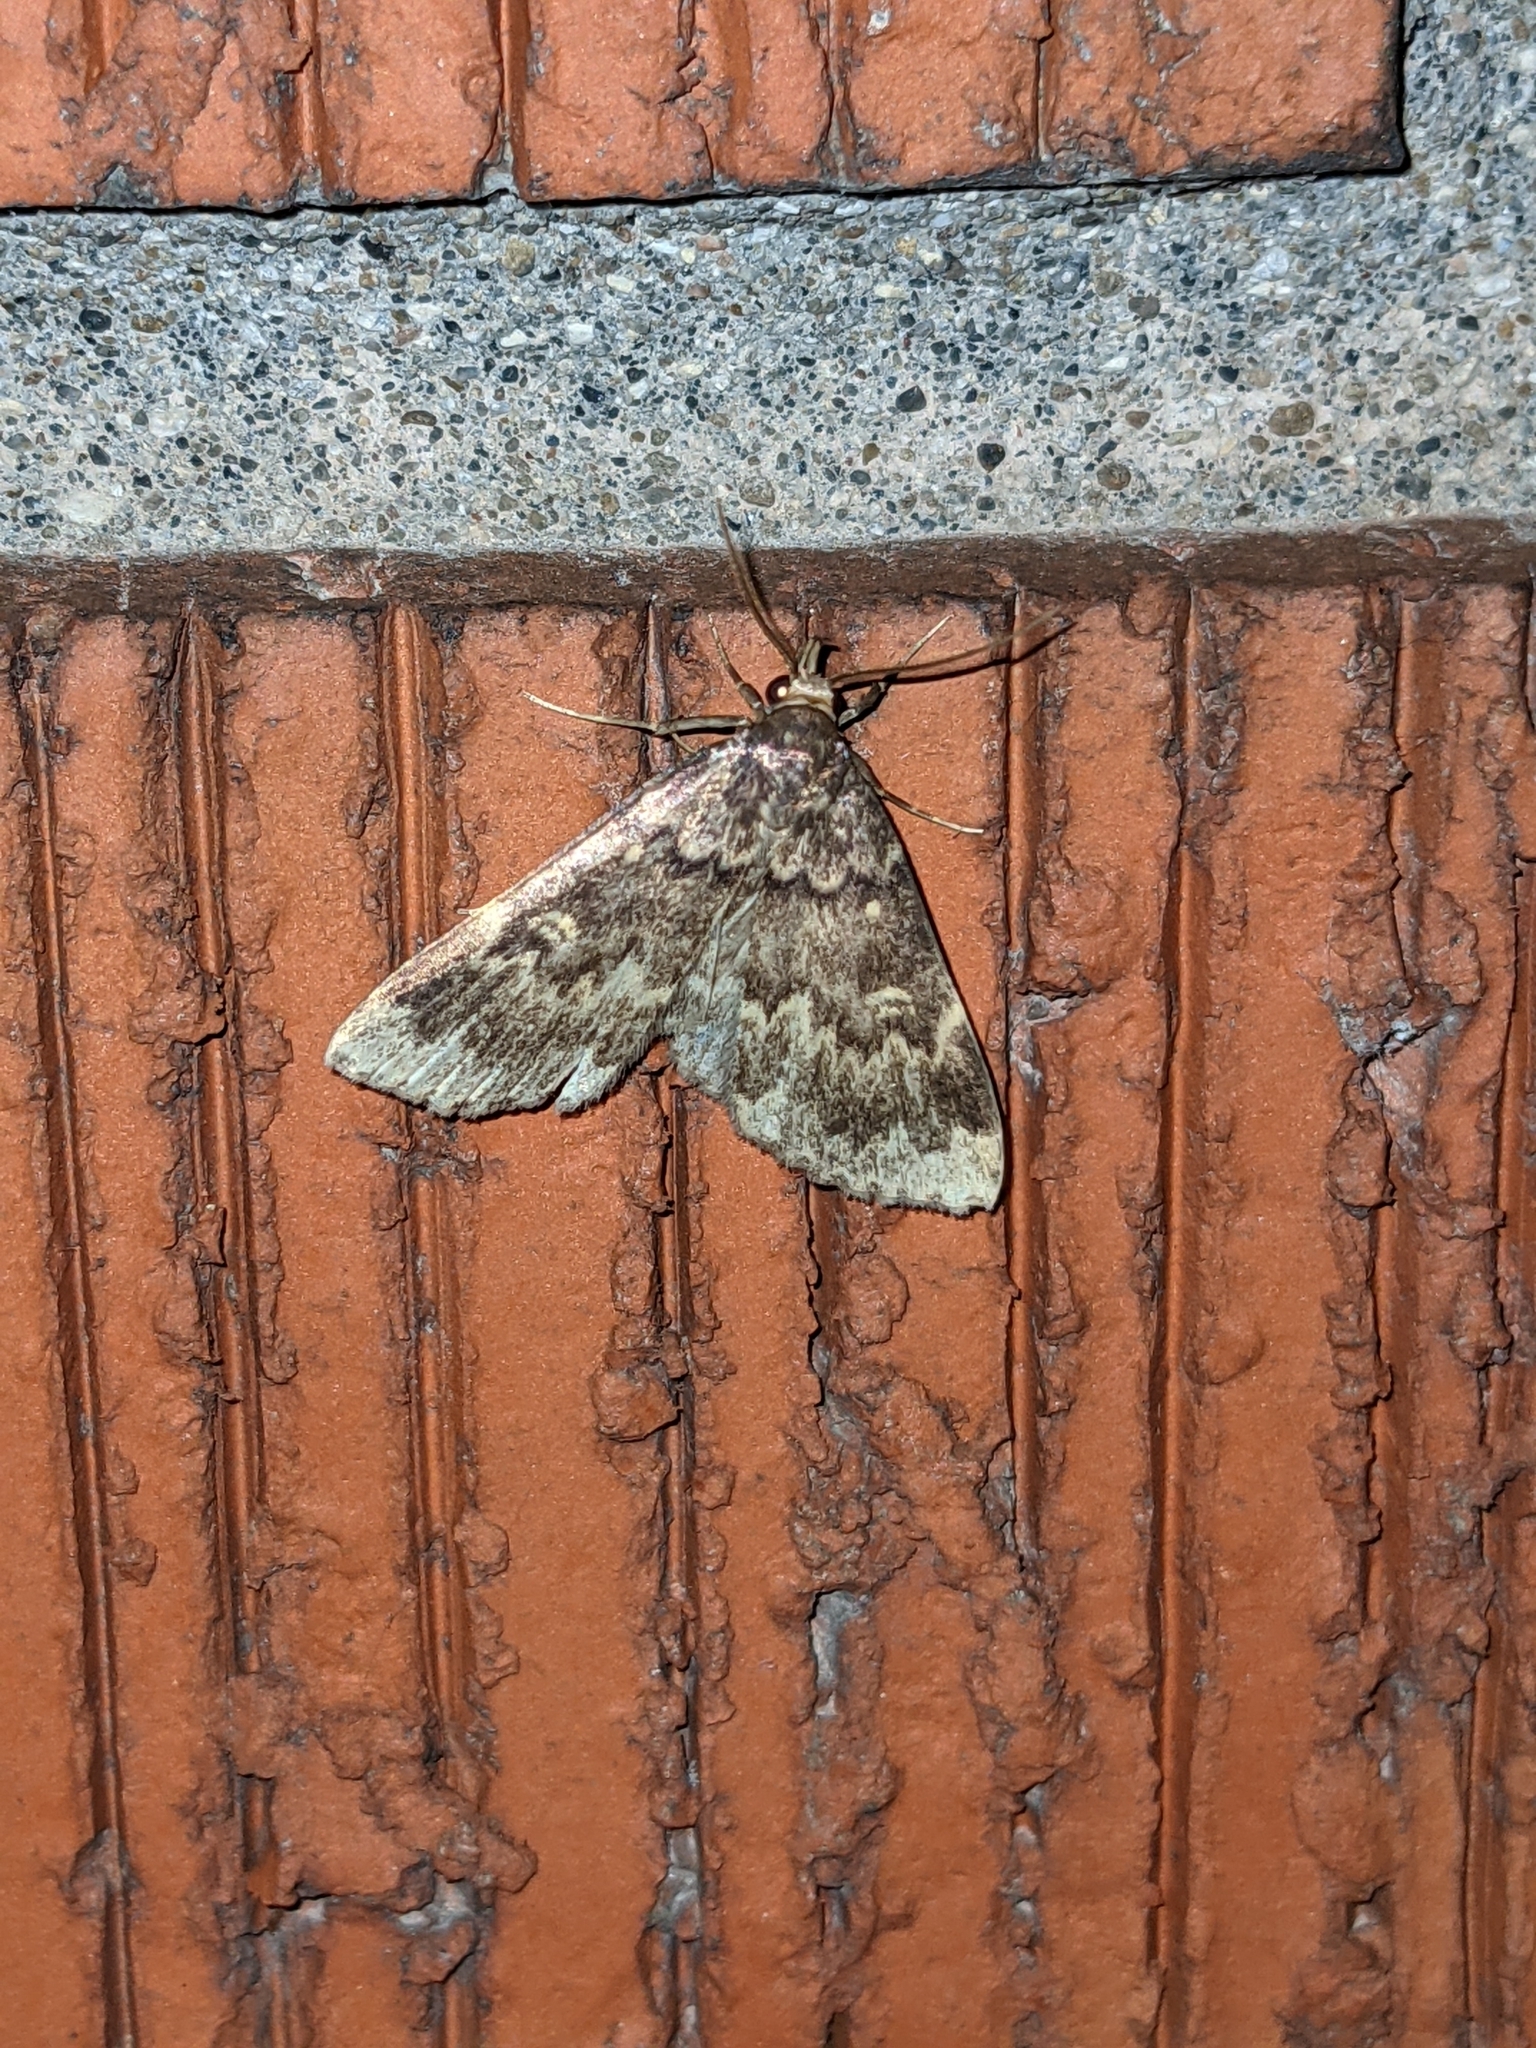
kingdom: Animalia
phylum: Arthropoda
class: Insecta
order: Lepidoptera
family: Erebidae
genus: Idia
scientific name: Idia lubricalis
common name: Twin-striped tabby
